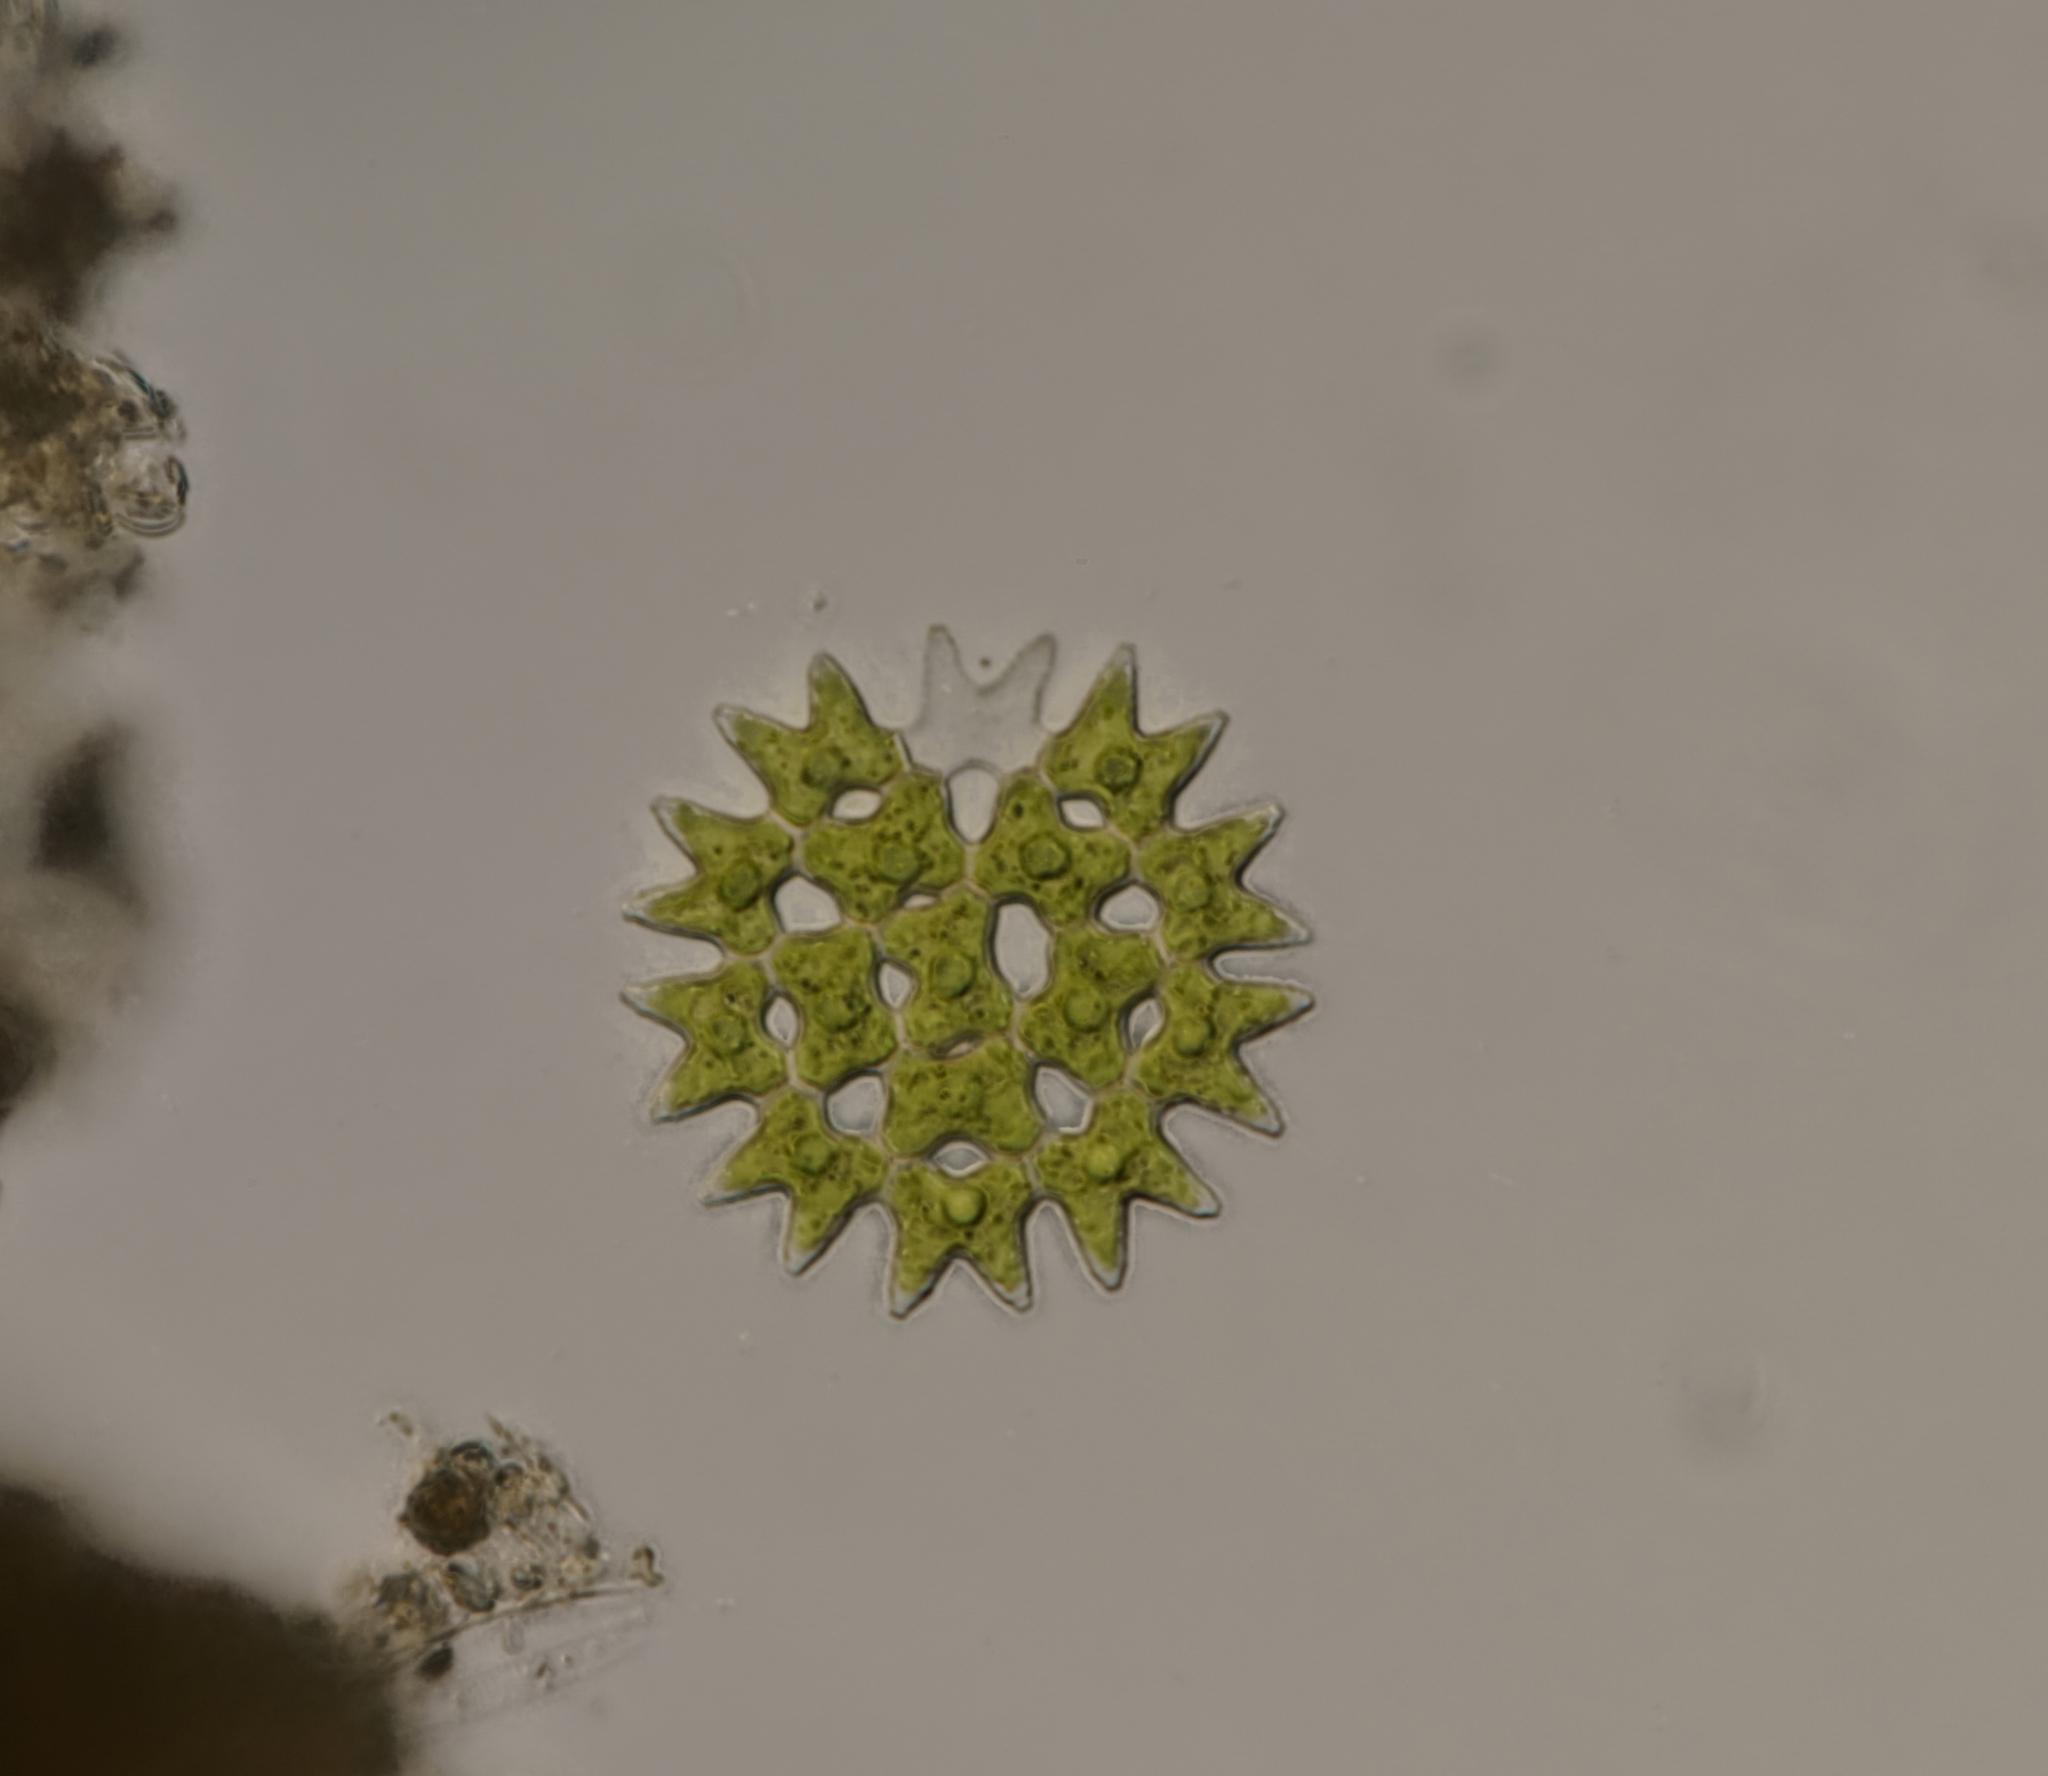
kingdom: Plantae
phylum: Chlorophyta
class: Chlorophyceae
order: Sphaeropleales
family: Hydrodictyaceae
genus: Pediastrum
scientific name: Pediastrum duplex
